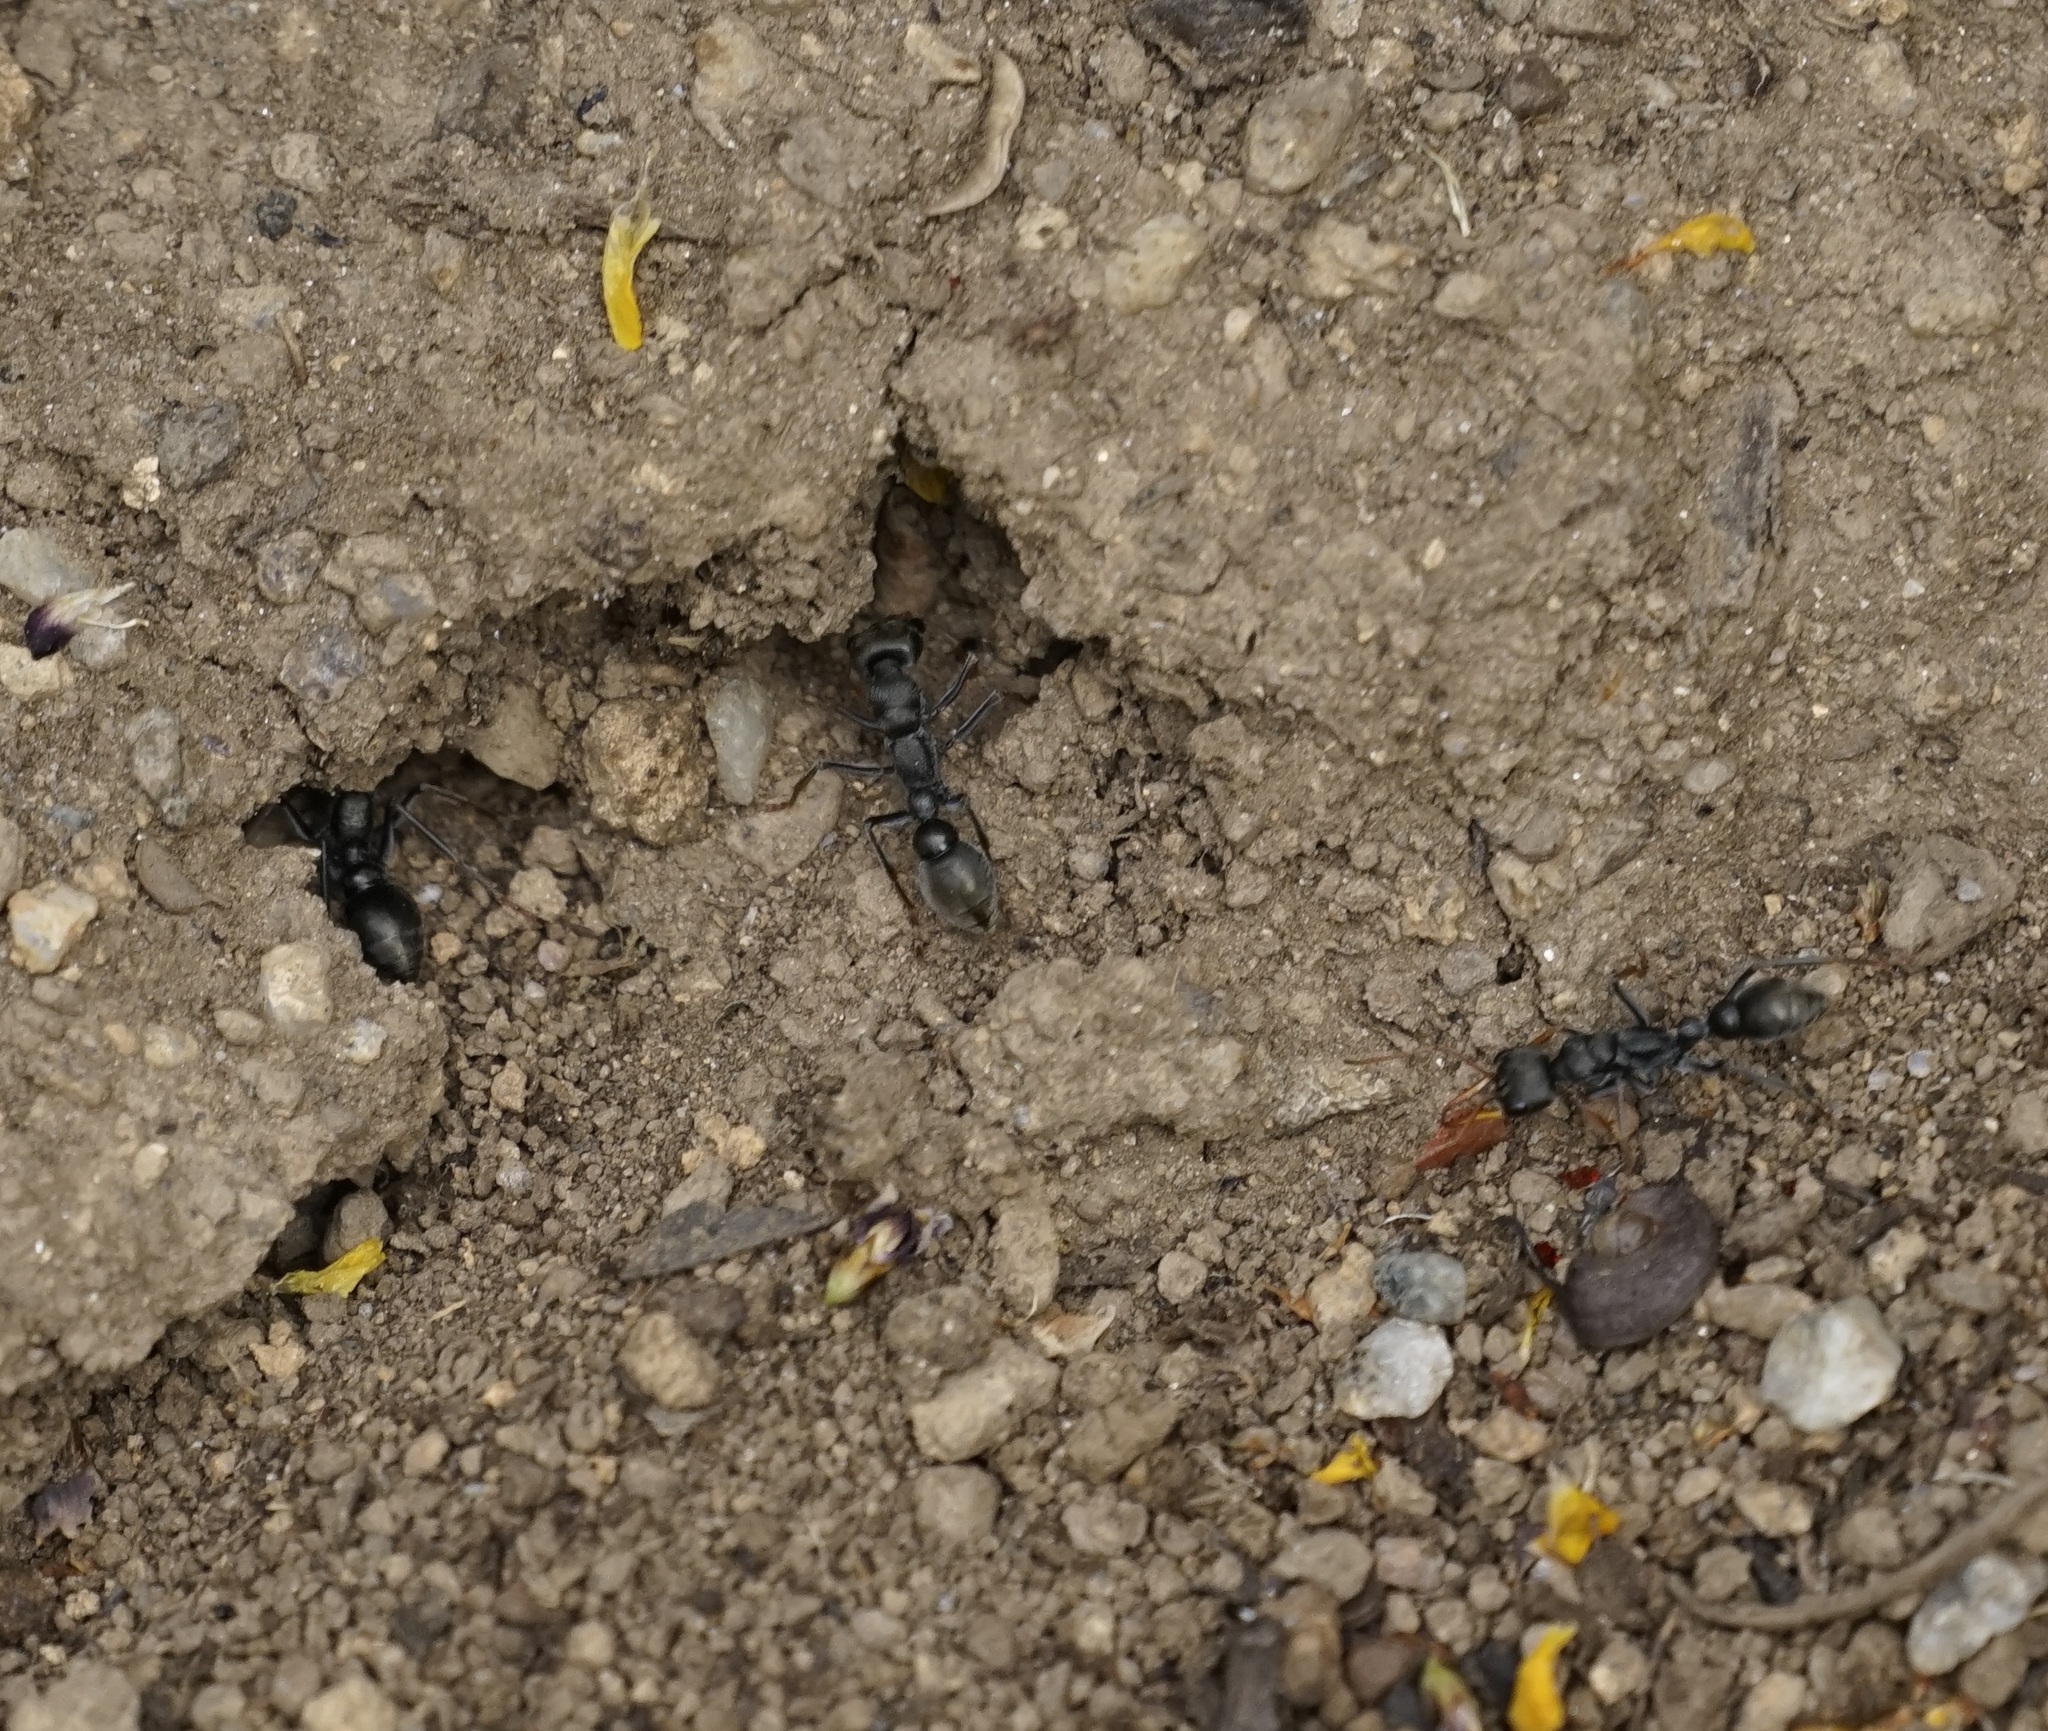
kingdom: Animalia
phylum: Arthropoda
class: Insecta
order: Hymenoptera
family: Formicidae
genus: Myrmecia
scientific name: Myrmecia haskinsorum
